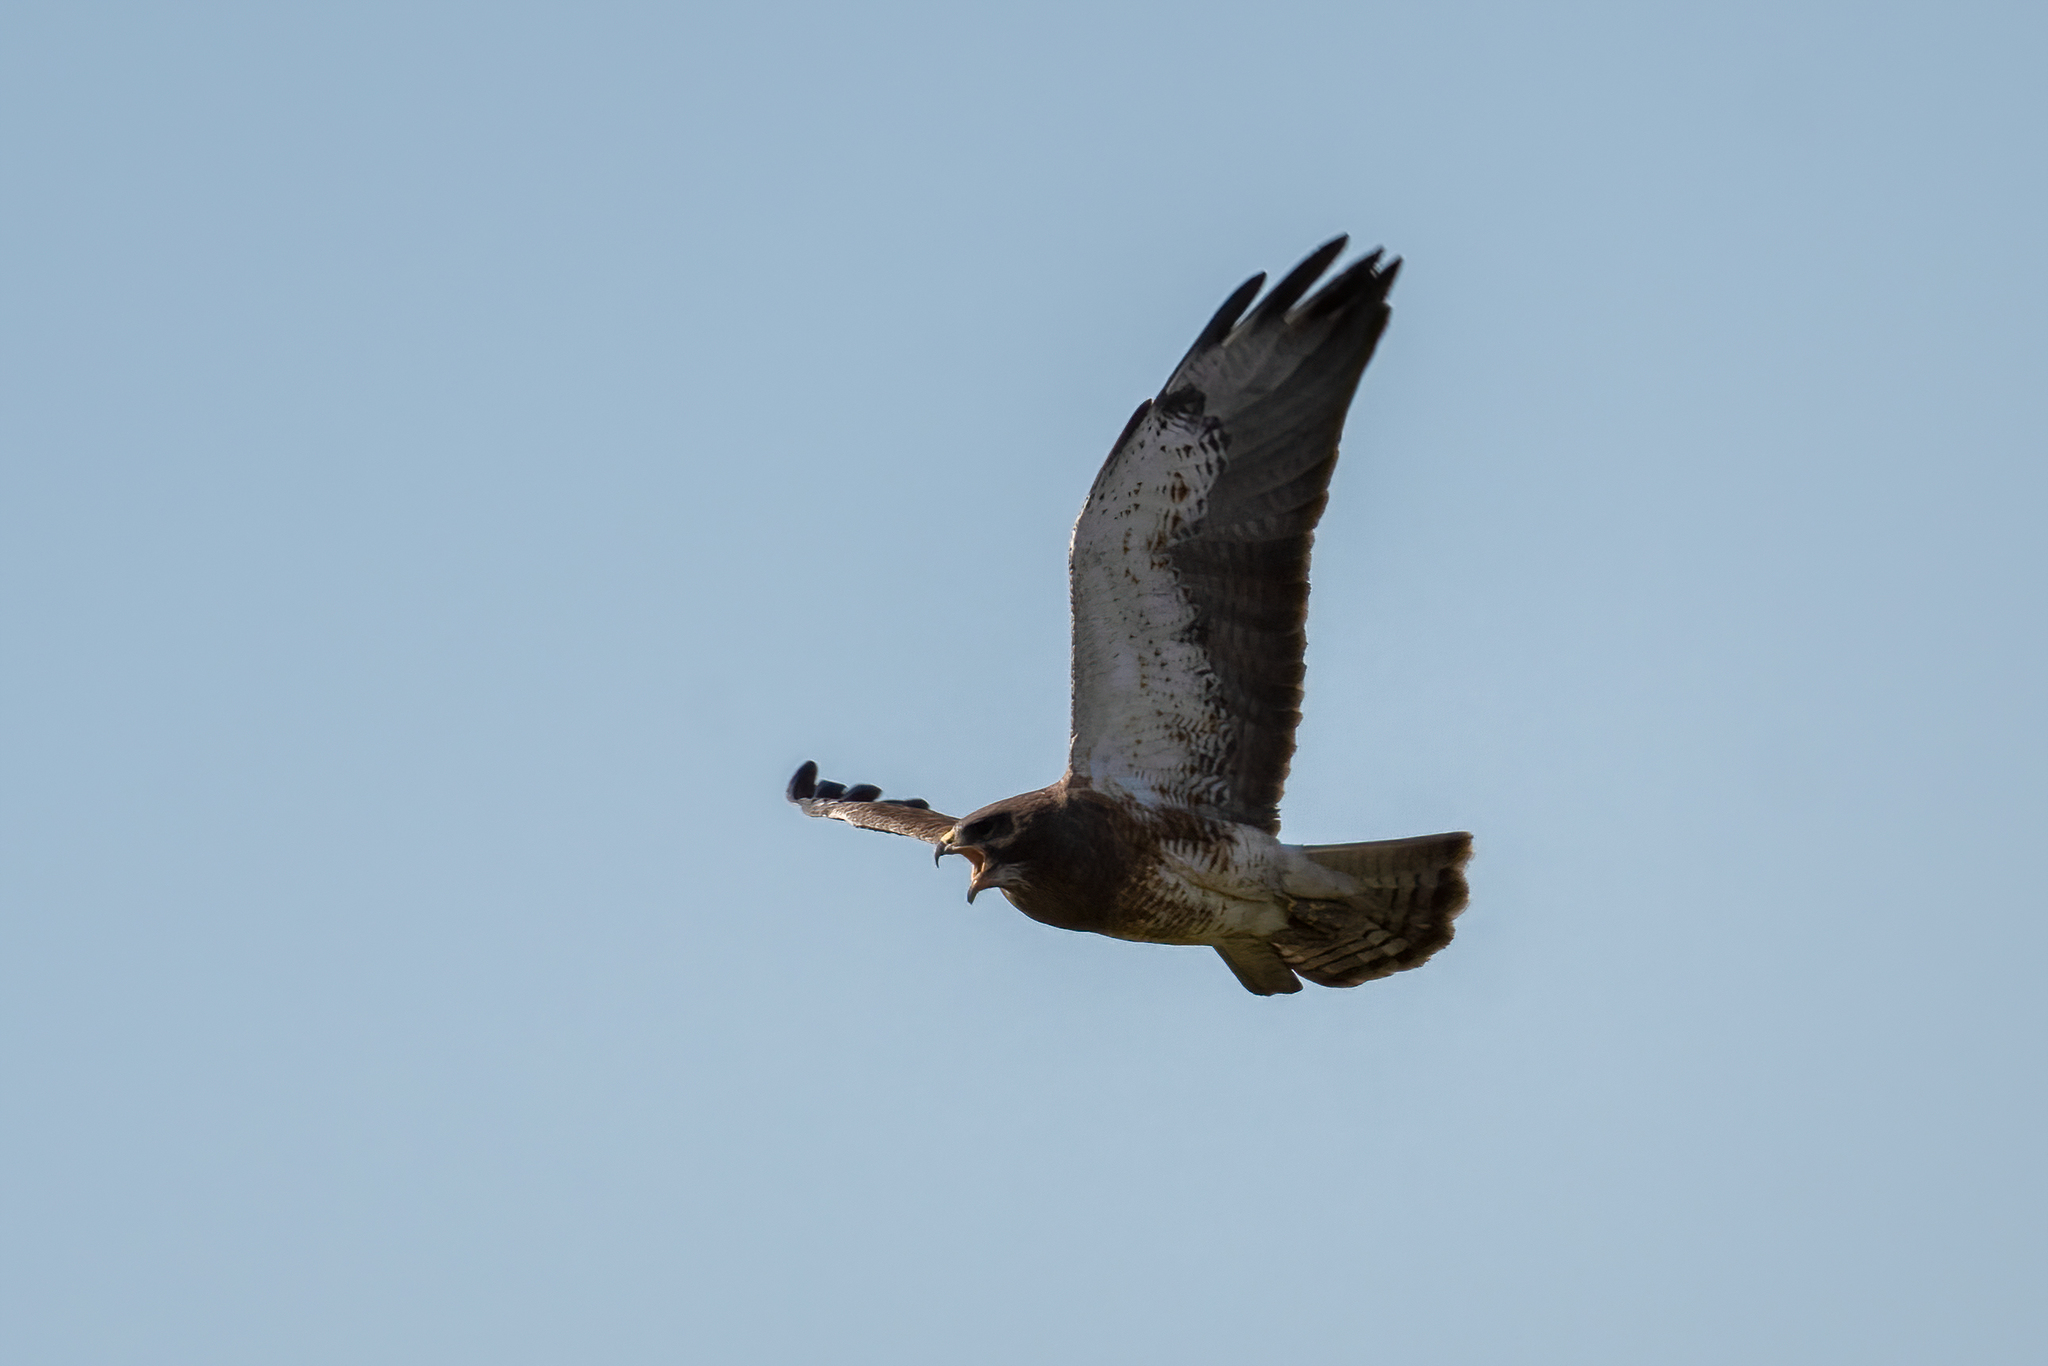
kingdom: Animalia
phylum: Chordata
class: Aves
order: Accipitriformes
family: Accipitridae
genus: Buteo
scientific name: Buteo swainsoni
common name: Swainson's hawk
